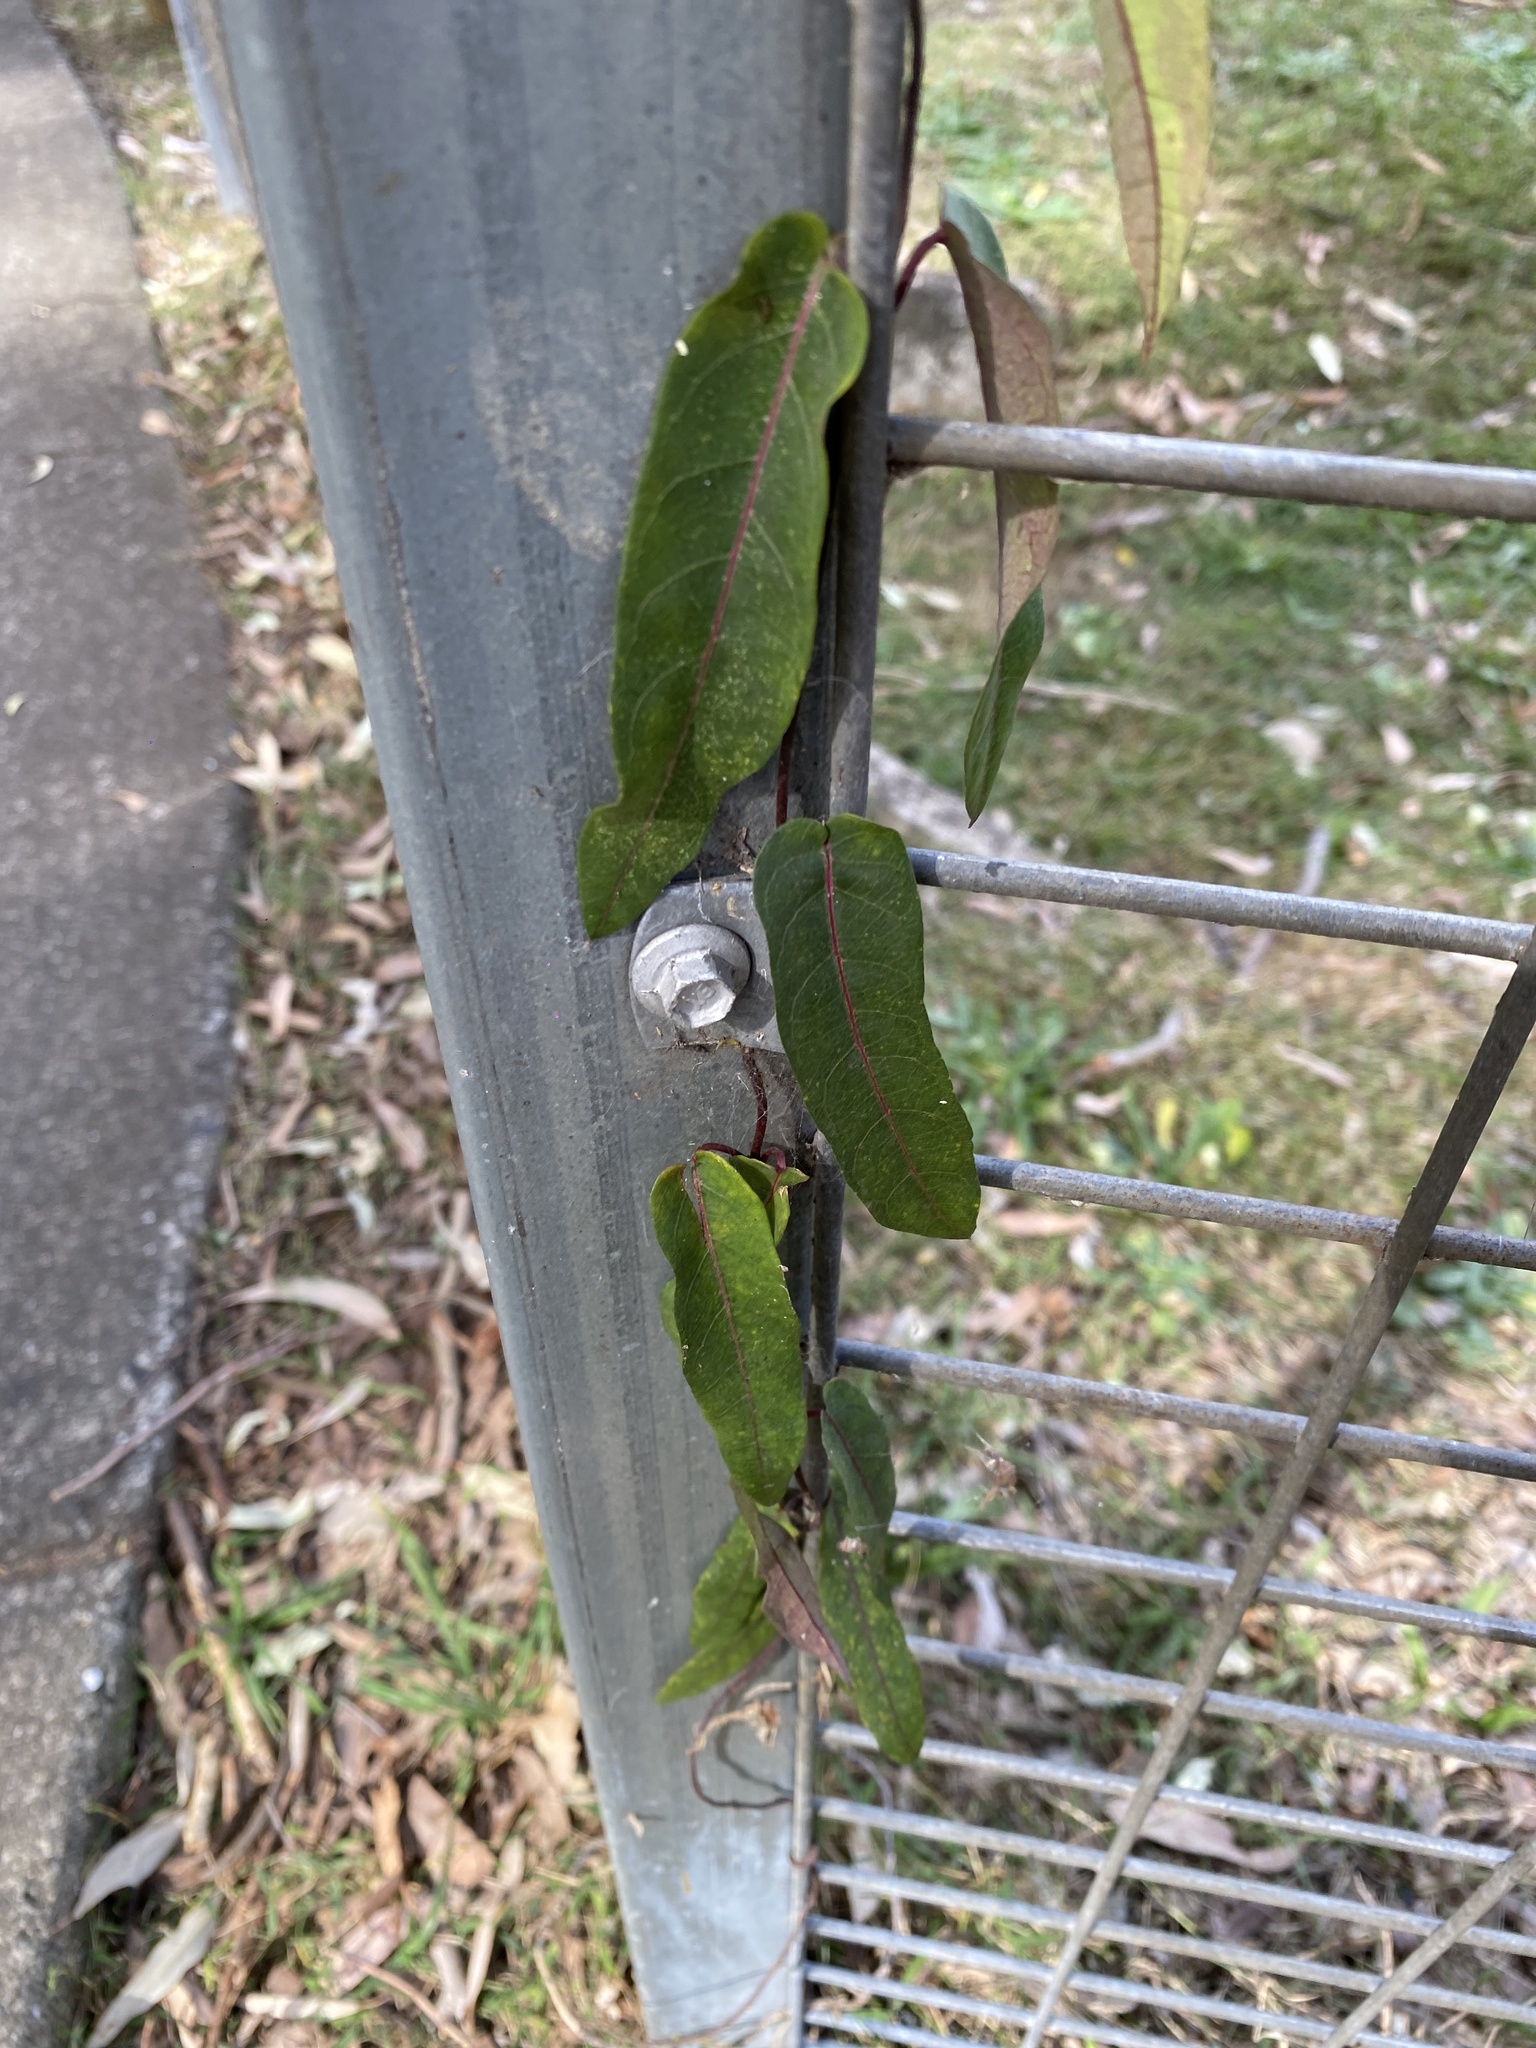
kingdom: Plantae
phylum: Tracheophyta
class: Magnoliopsida
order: Gentianales
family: Apocynaceae
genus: Parsonsia
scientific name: Parsonsia straminea
